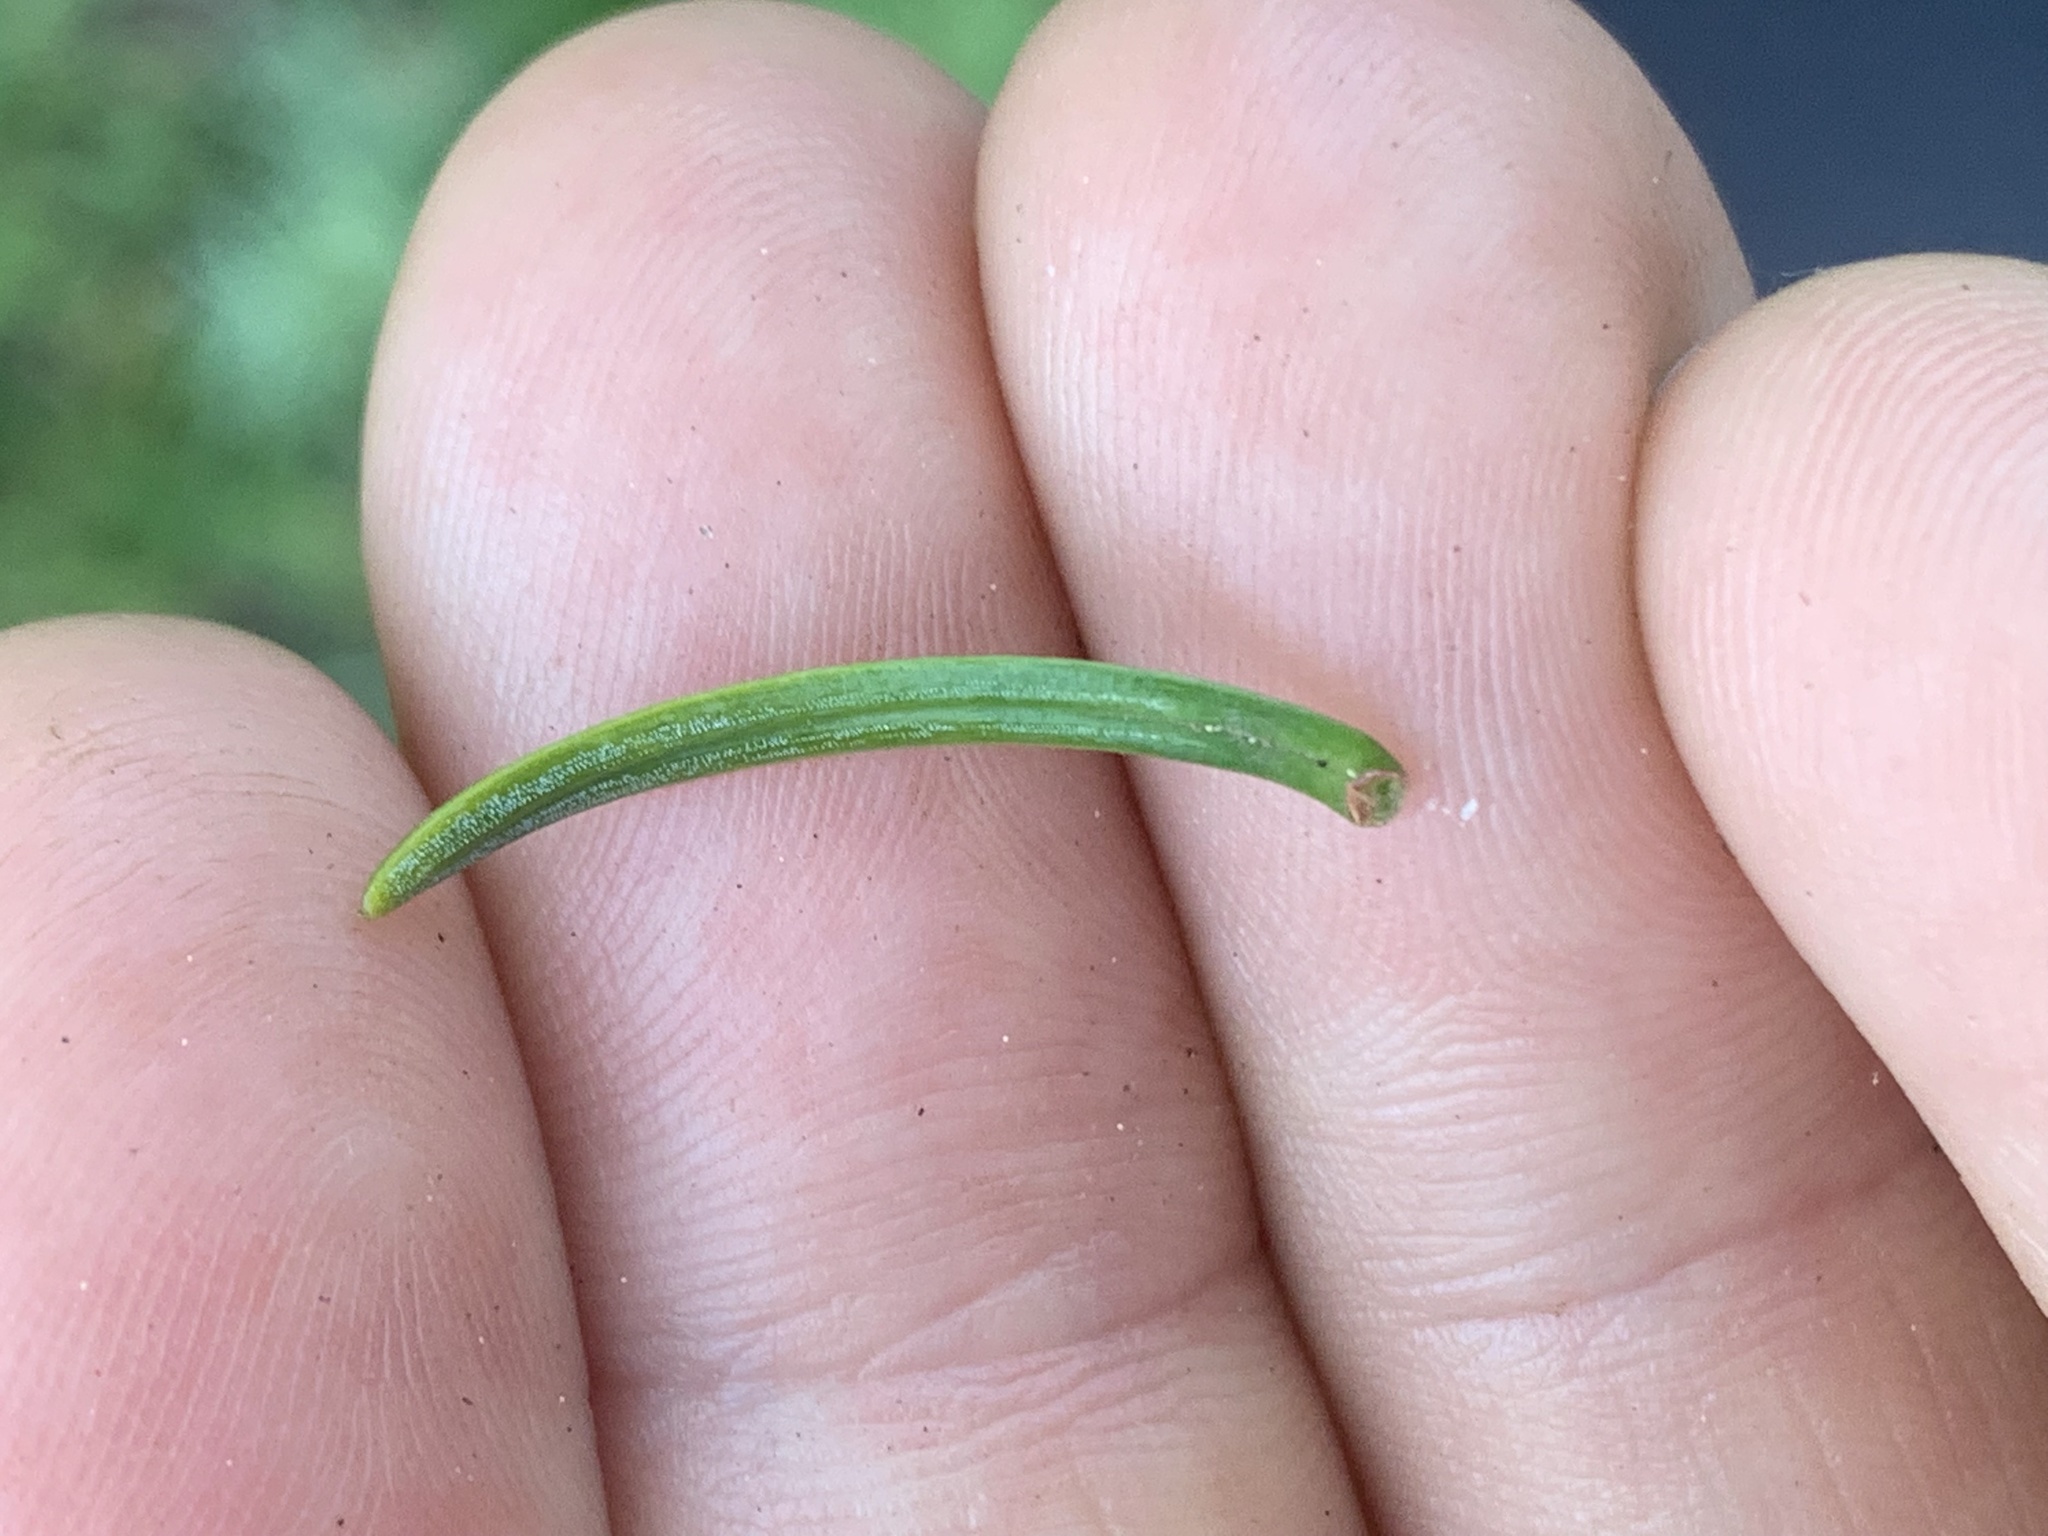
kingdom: Plantae
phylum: Tracheophyta
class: Pinopsida
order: Pinales
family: Pinaceae
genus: Abies
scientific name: Abies procera
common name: Noble fir
